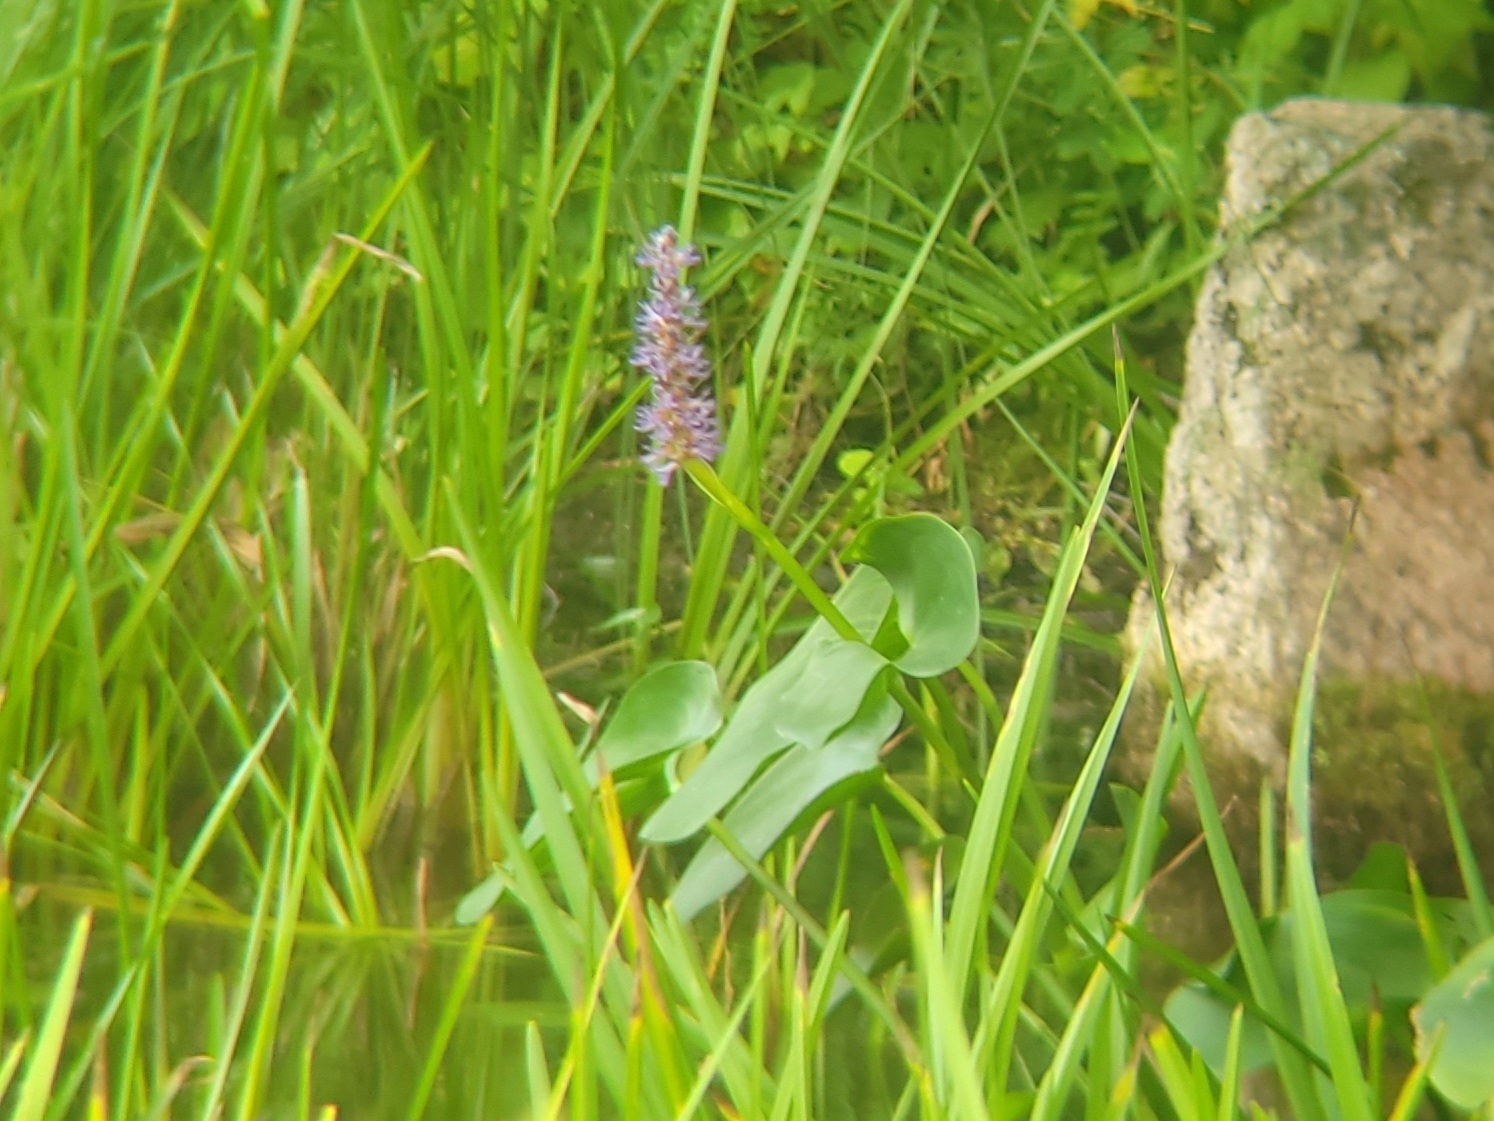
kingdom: Plantae
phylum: Tracheophyta
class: Liliopsida
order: Commelinales
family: Pontederiaceae
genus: Pontederia
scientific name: Pontederia cordata
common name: Pickerelweed
